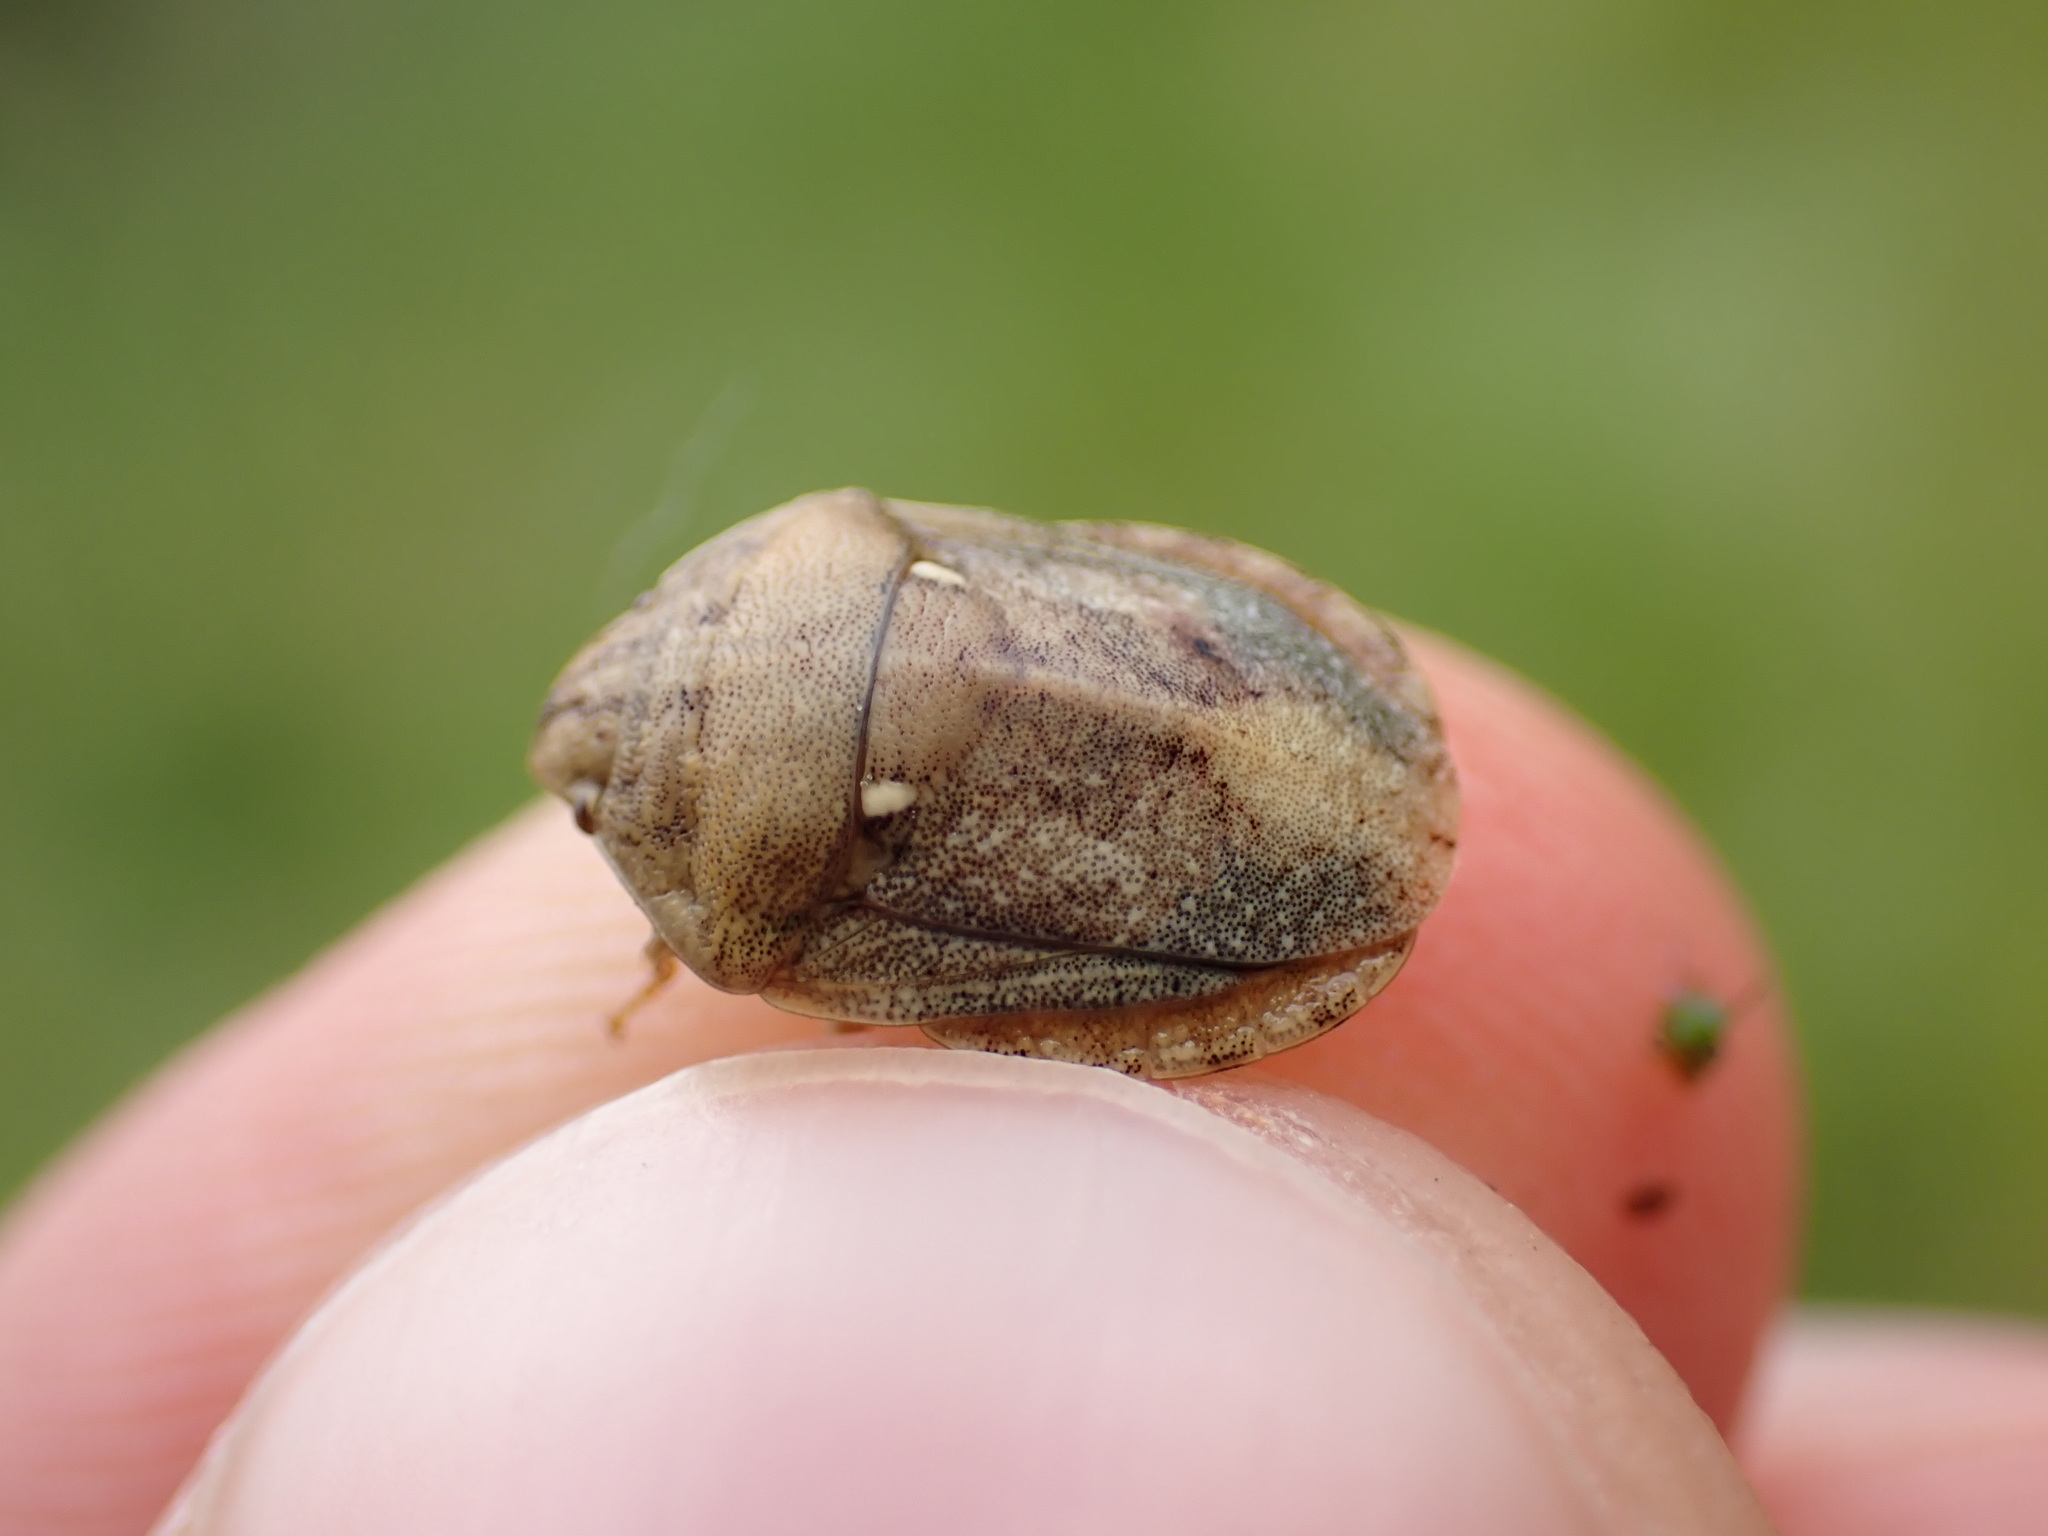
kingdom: Animalia
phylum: Arthropoda
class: Insecta
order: Hemiptera
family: Scutelleridae
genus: Eurygaster
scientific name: Eurygaster maura
